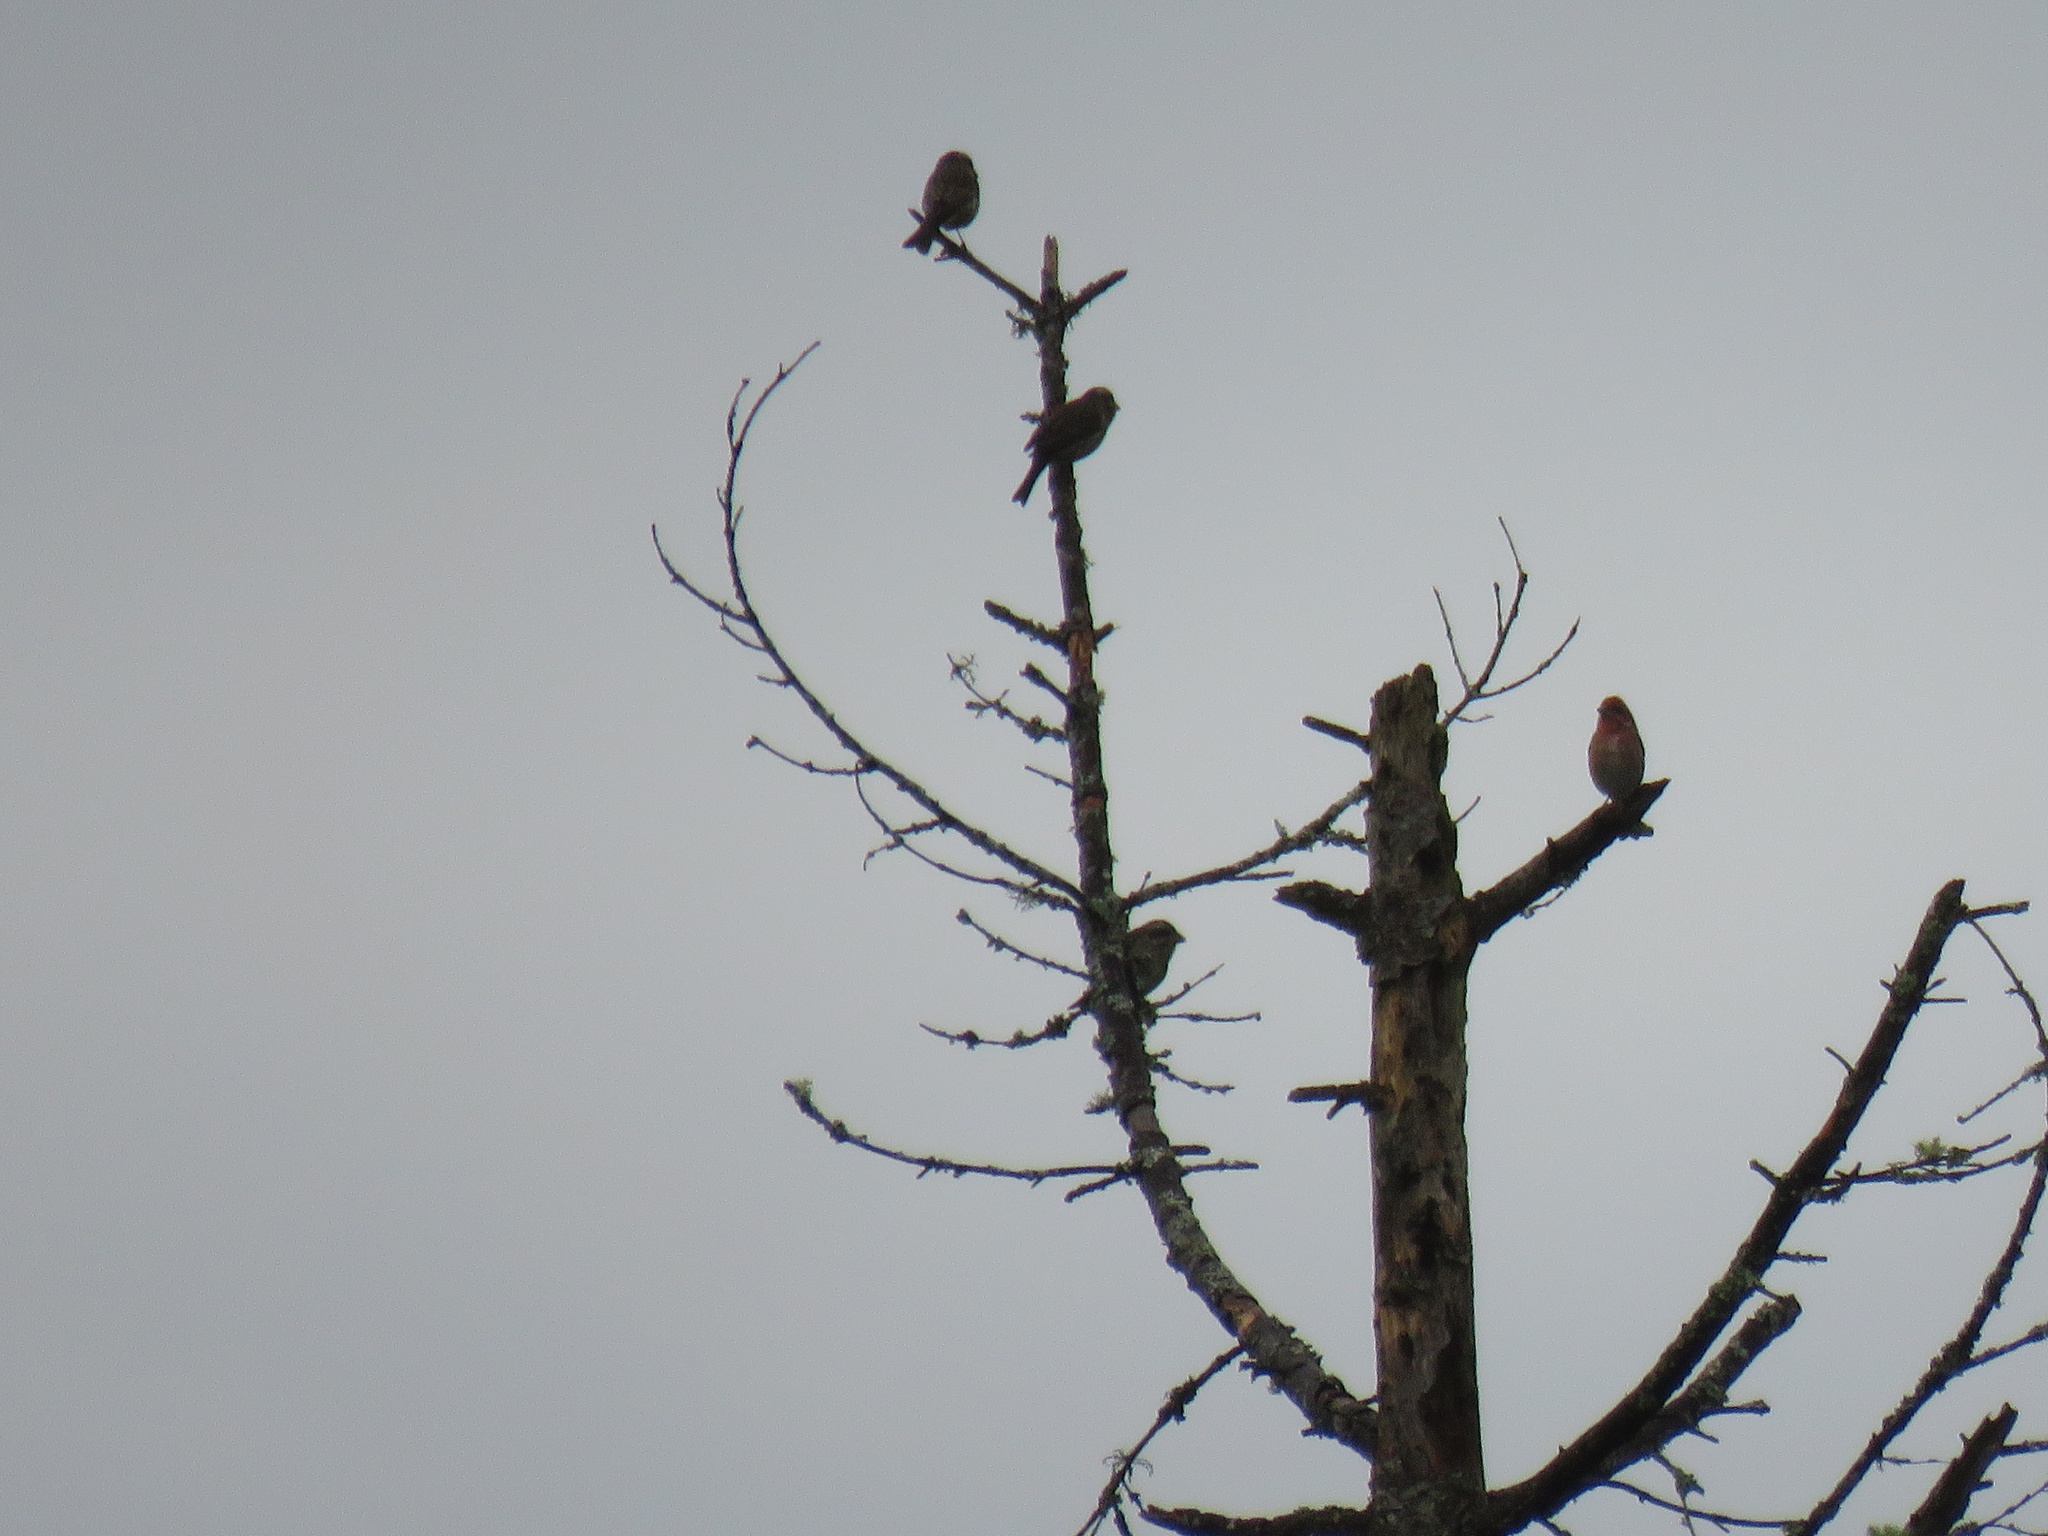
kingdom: Animalia
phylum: Chordata
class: Aves
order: Passeriformes
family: Fringillidae
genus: Haemorhous
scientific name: Haemorhous mexicanus
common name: House finch
